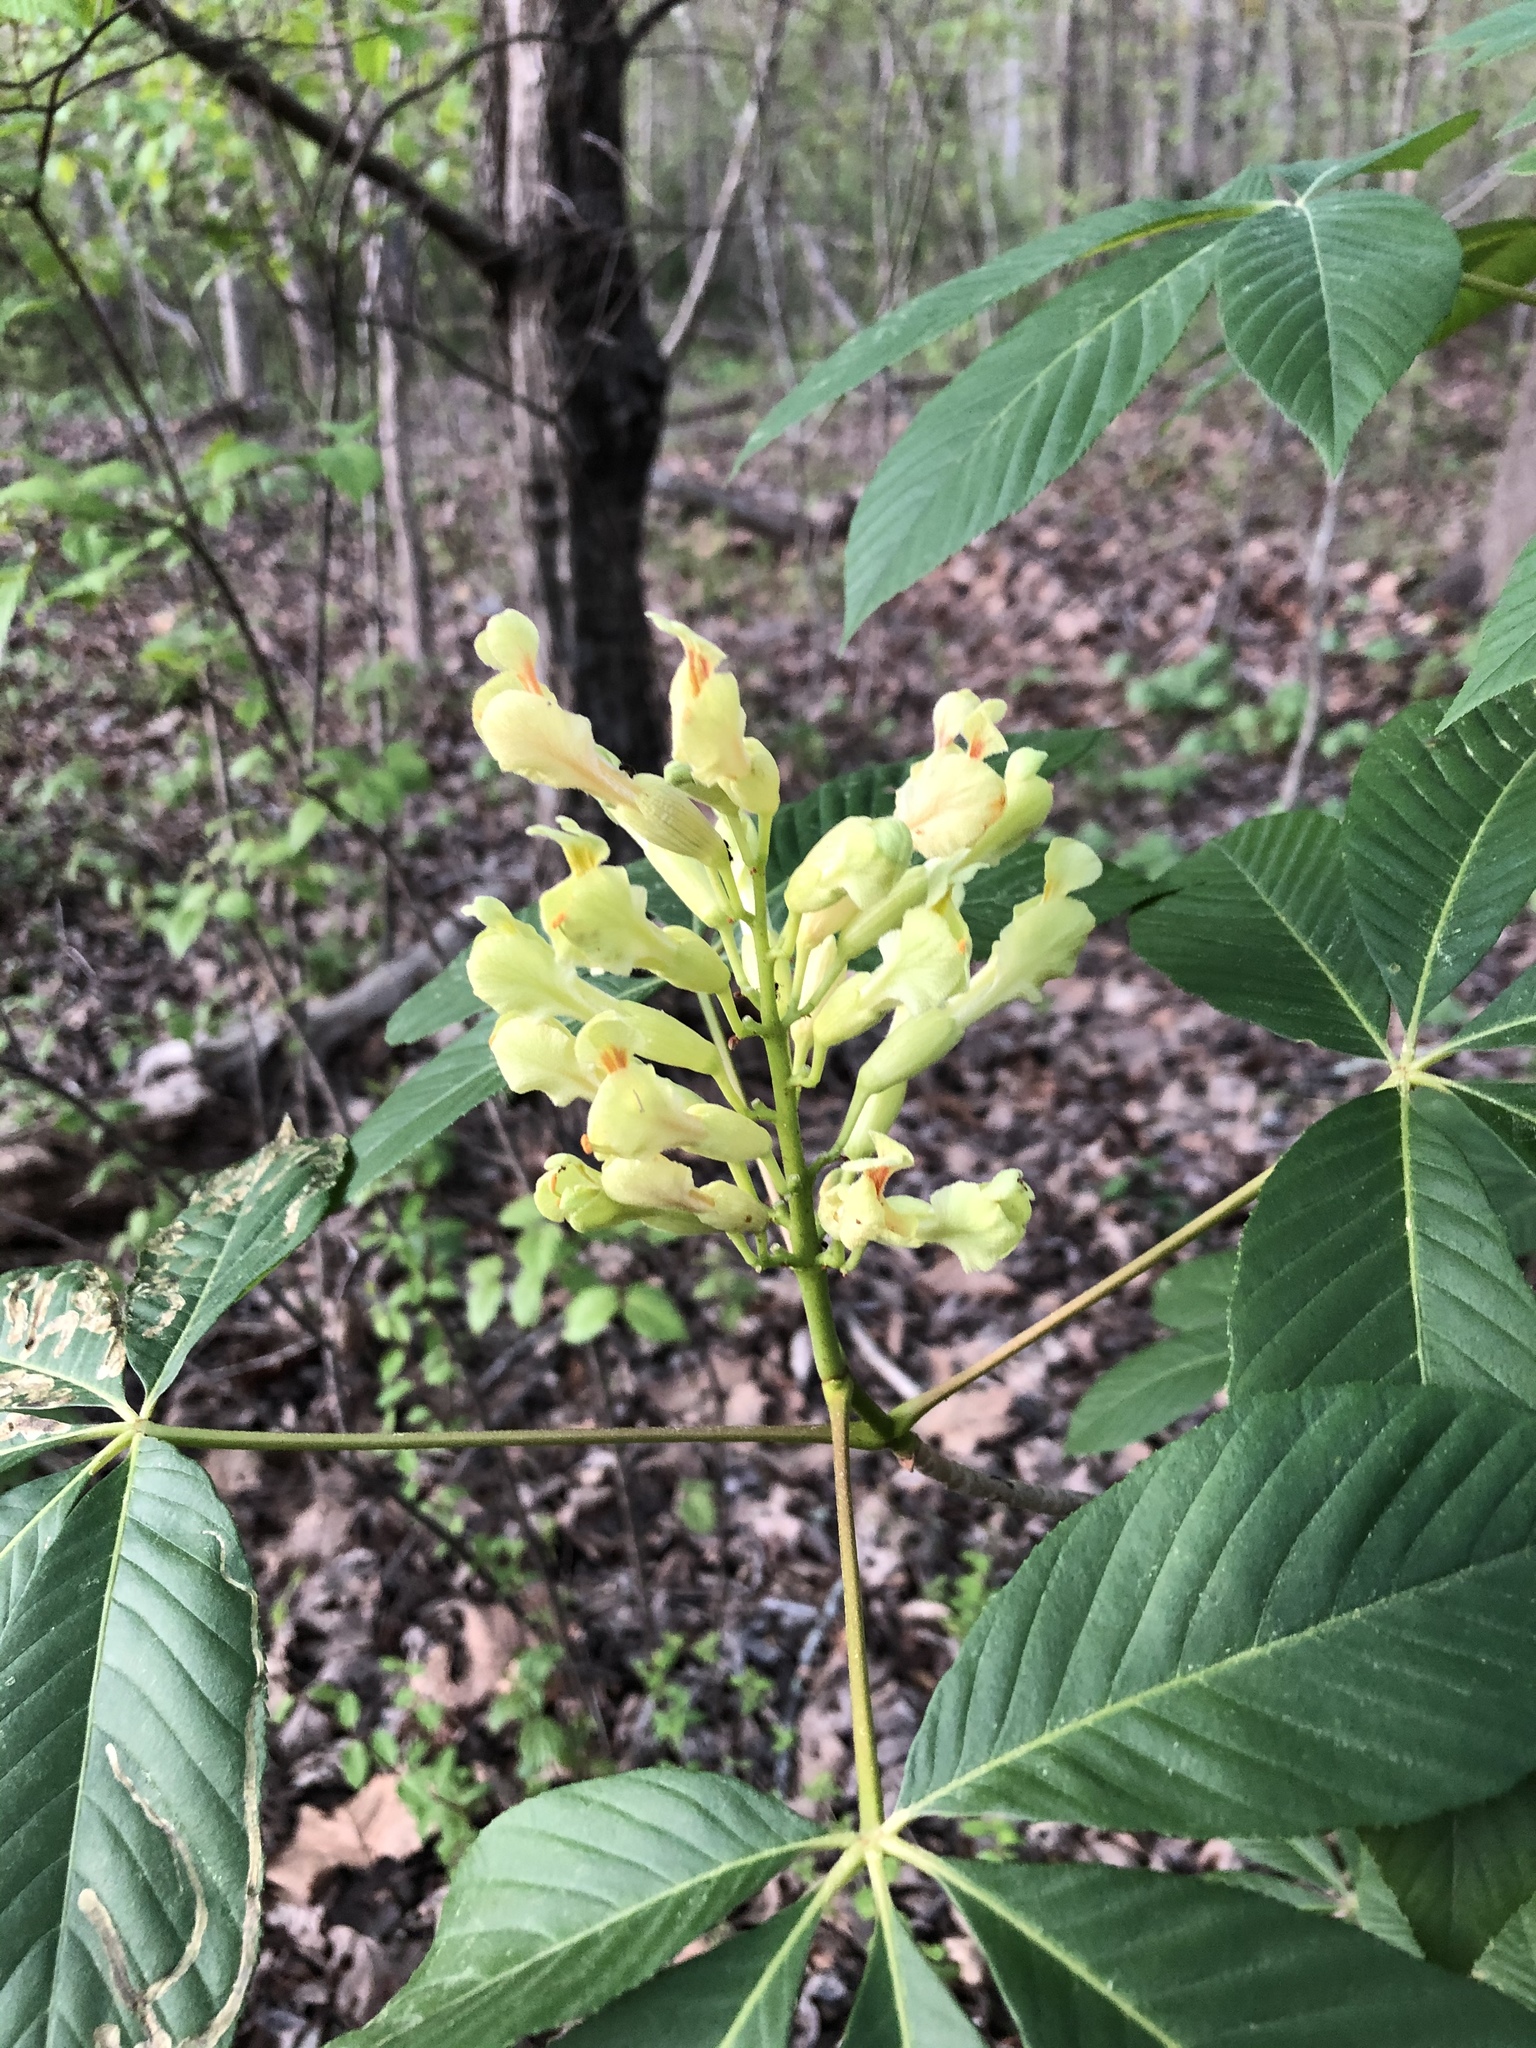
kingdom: Plantae
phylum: Tracheophyta
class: Magnoliopsida
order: Sapindales
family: Sapindaceae
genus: Aesculus
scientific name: Aesculus sylvatica
